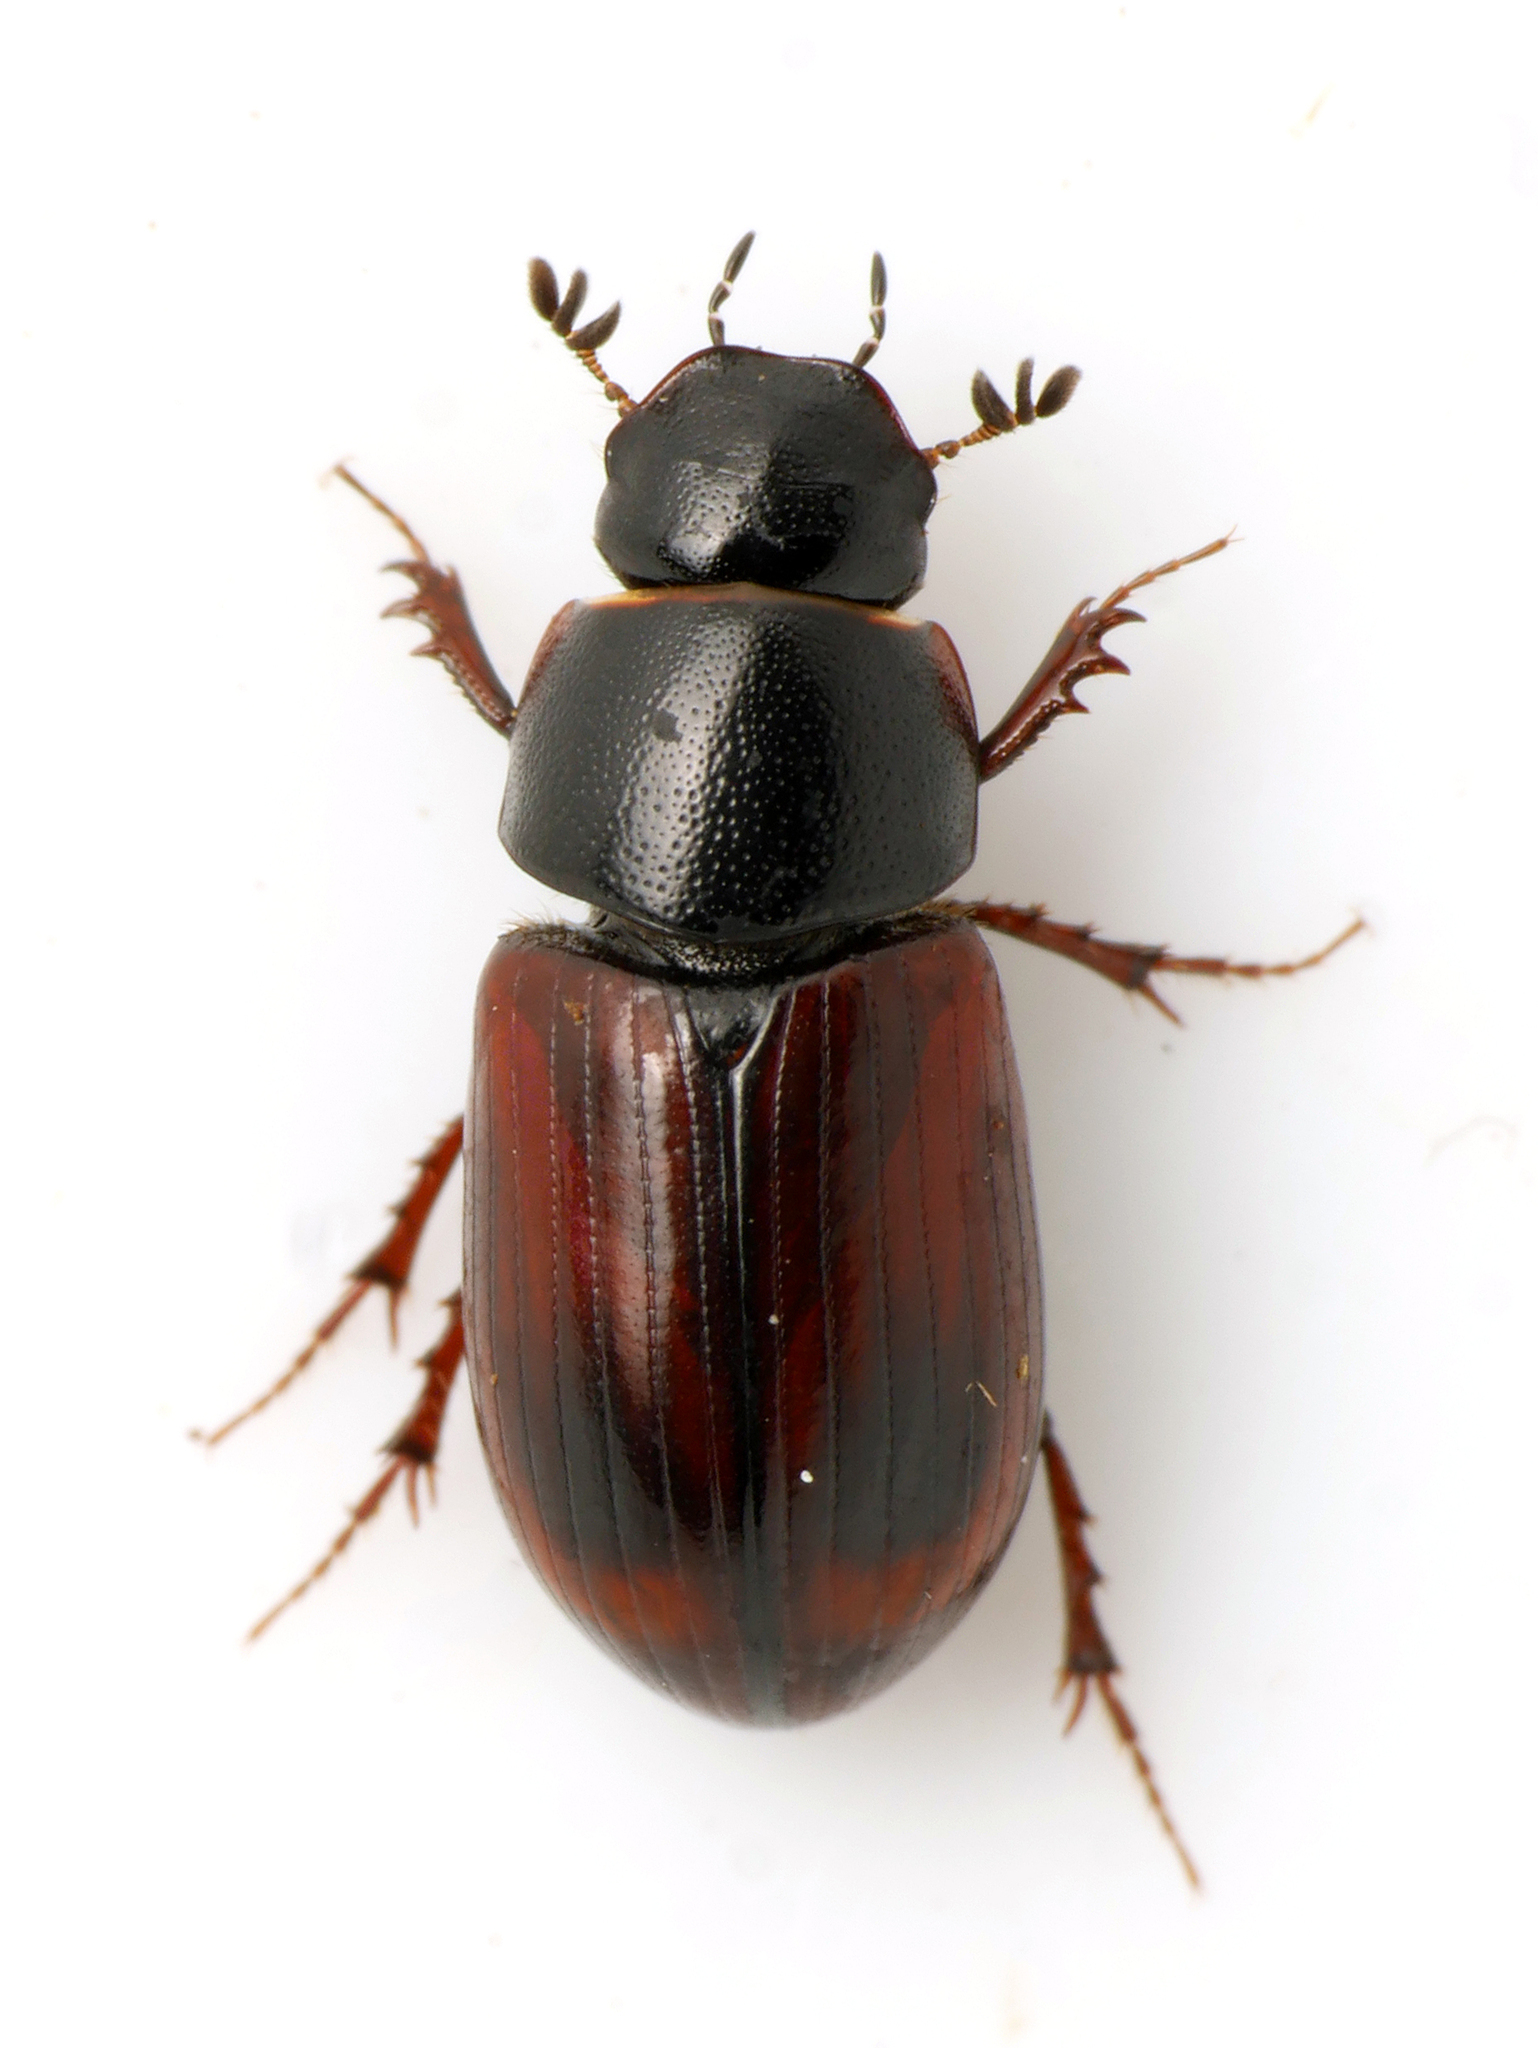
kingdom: Animalia
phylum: Arthropoda
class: Insecta
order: Coleoptera
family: Scarabaeidae
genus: Planolinus
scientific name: Planolinus fasciatus
